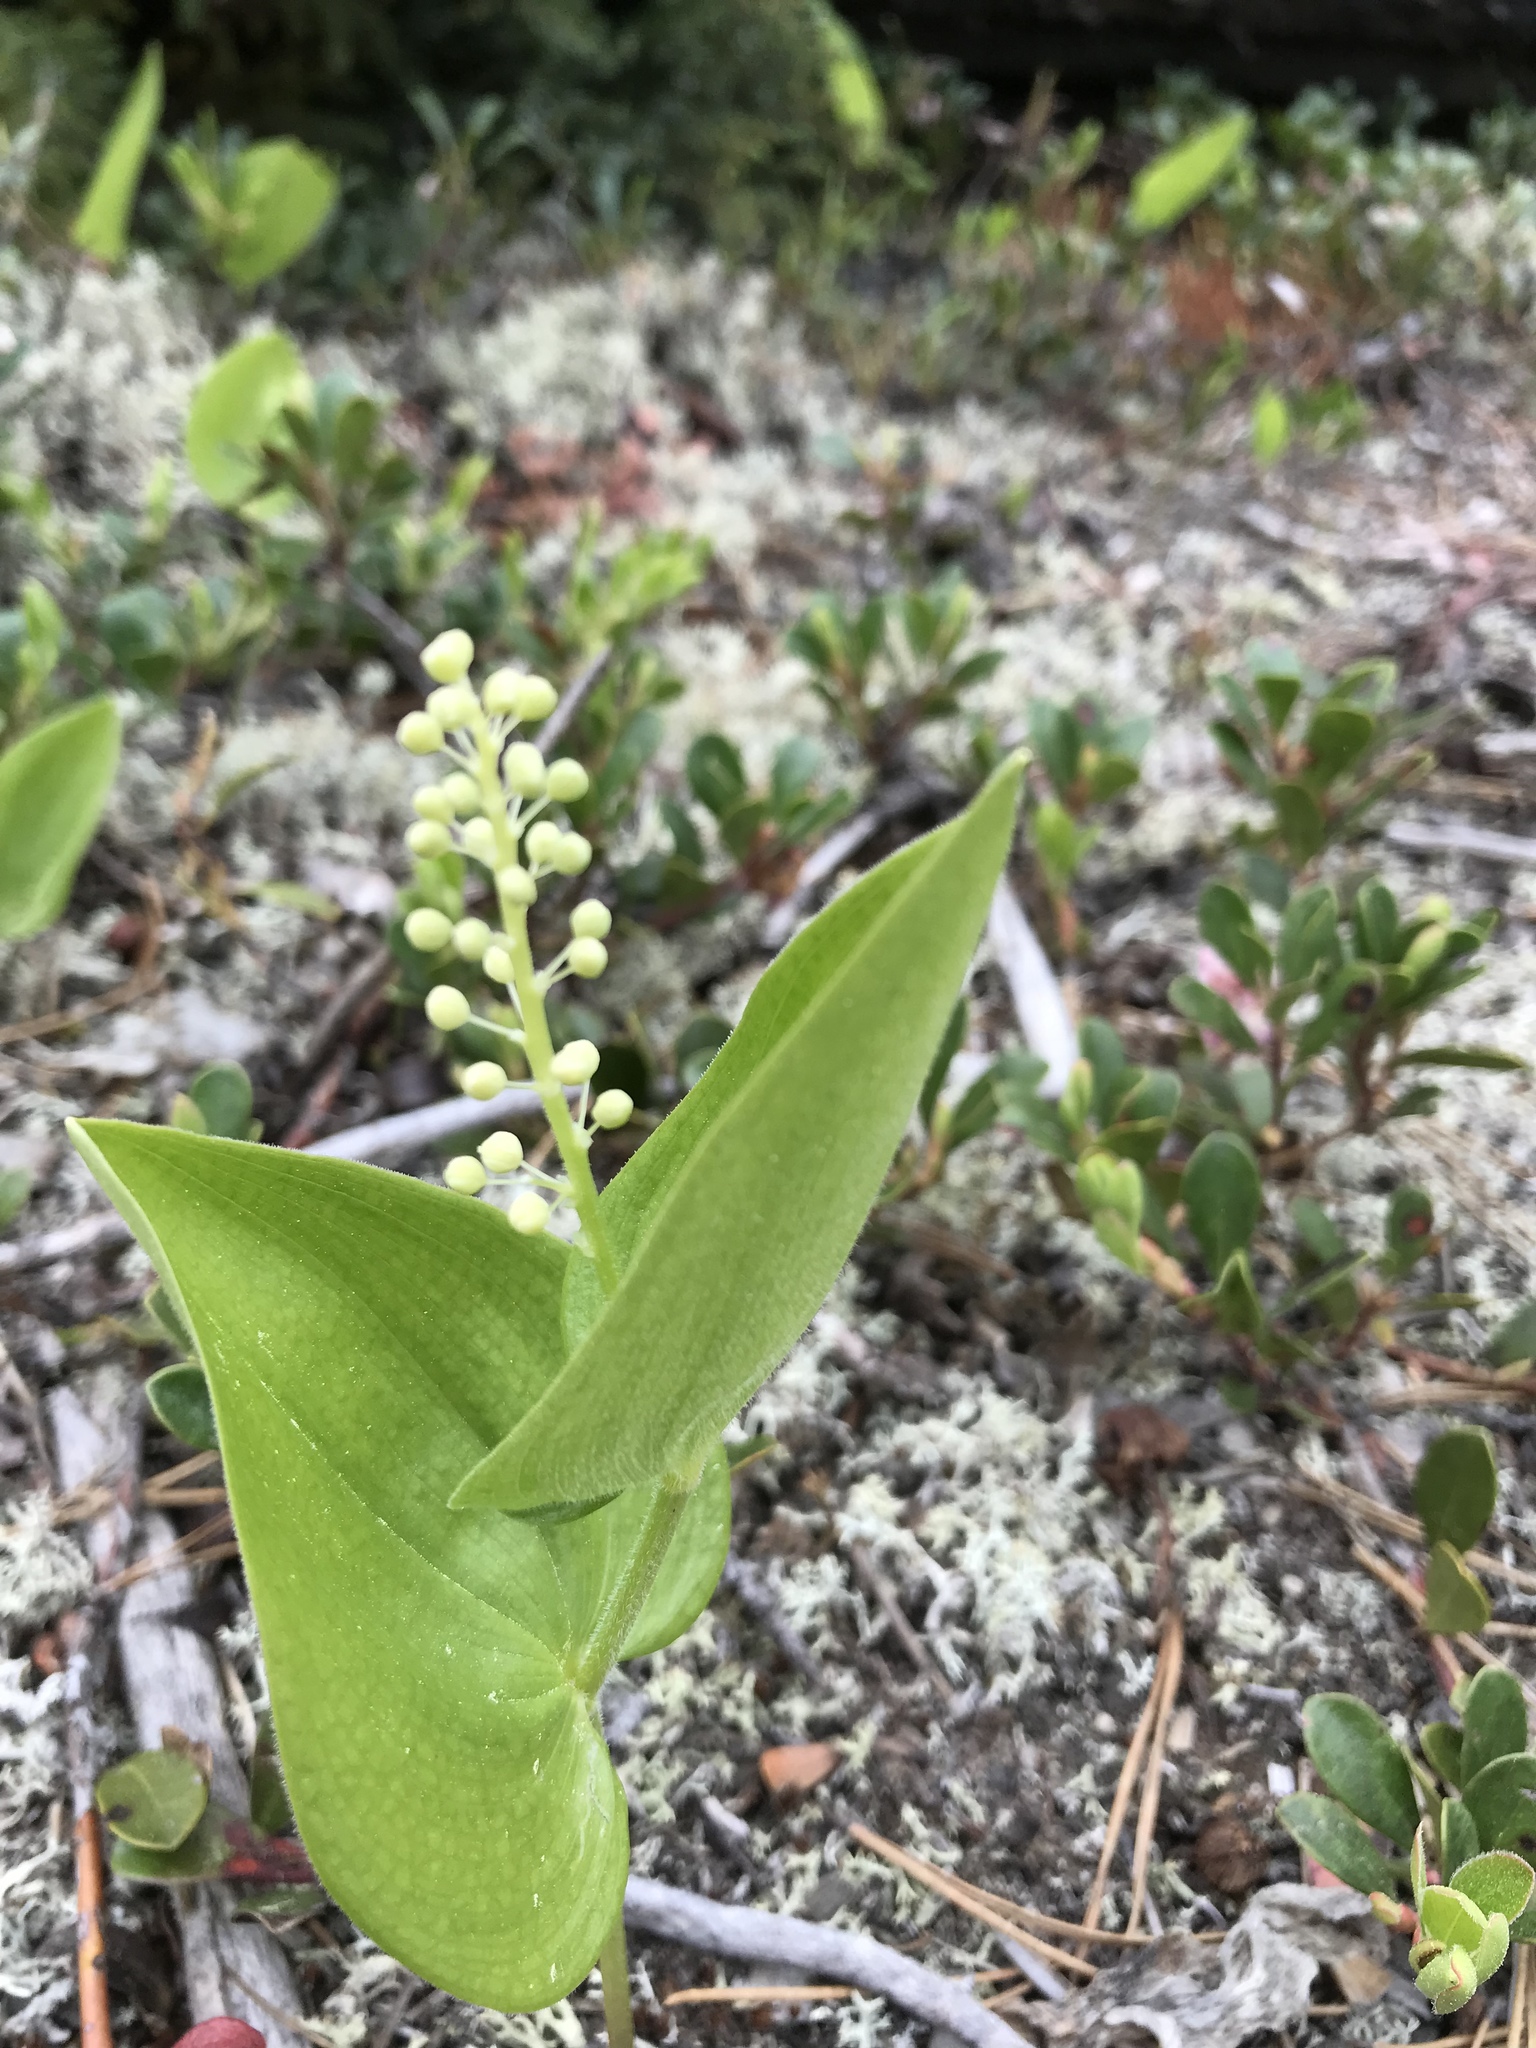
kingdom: Plantae
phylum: Tracheophyta
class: Liliopsida
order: Asparagales
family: Asparagaceae
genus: Maianthemum
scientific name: Maianthemum canadense
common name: False lily-of-the-valley
